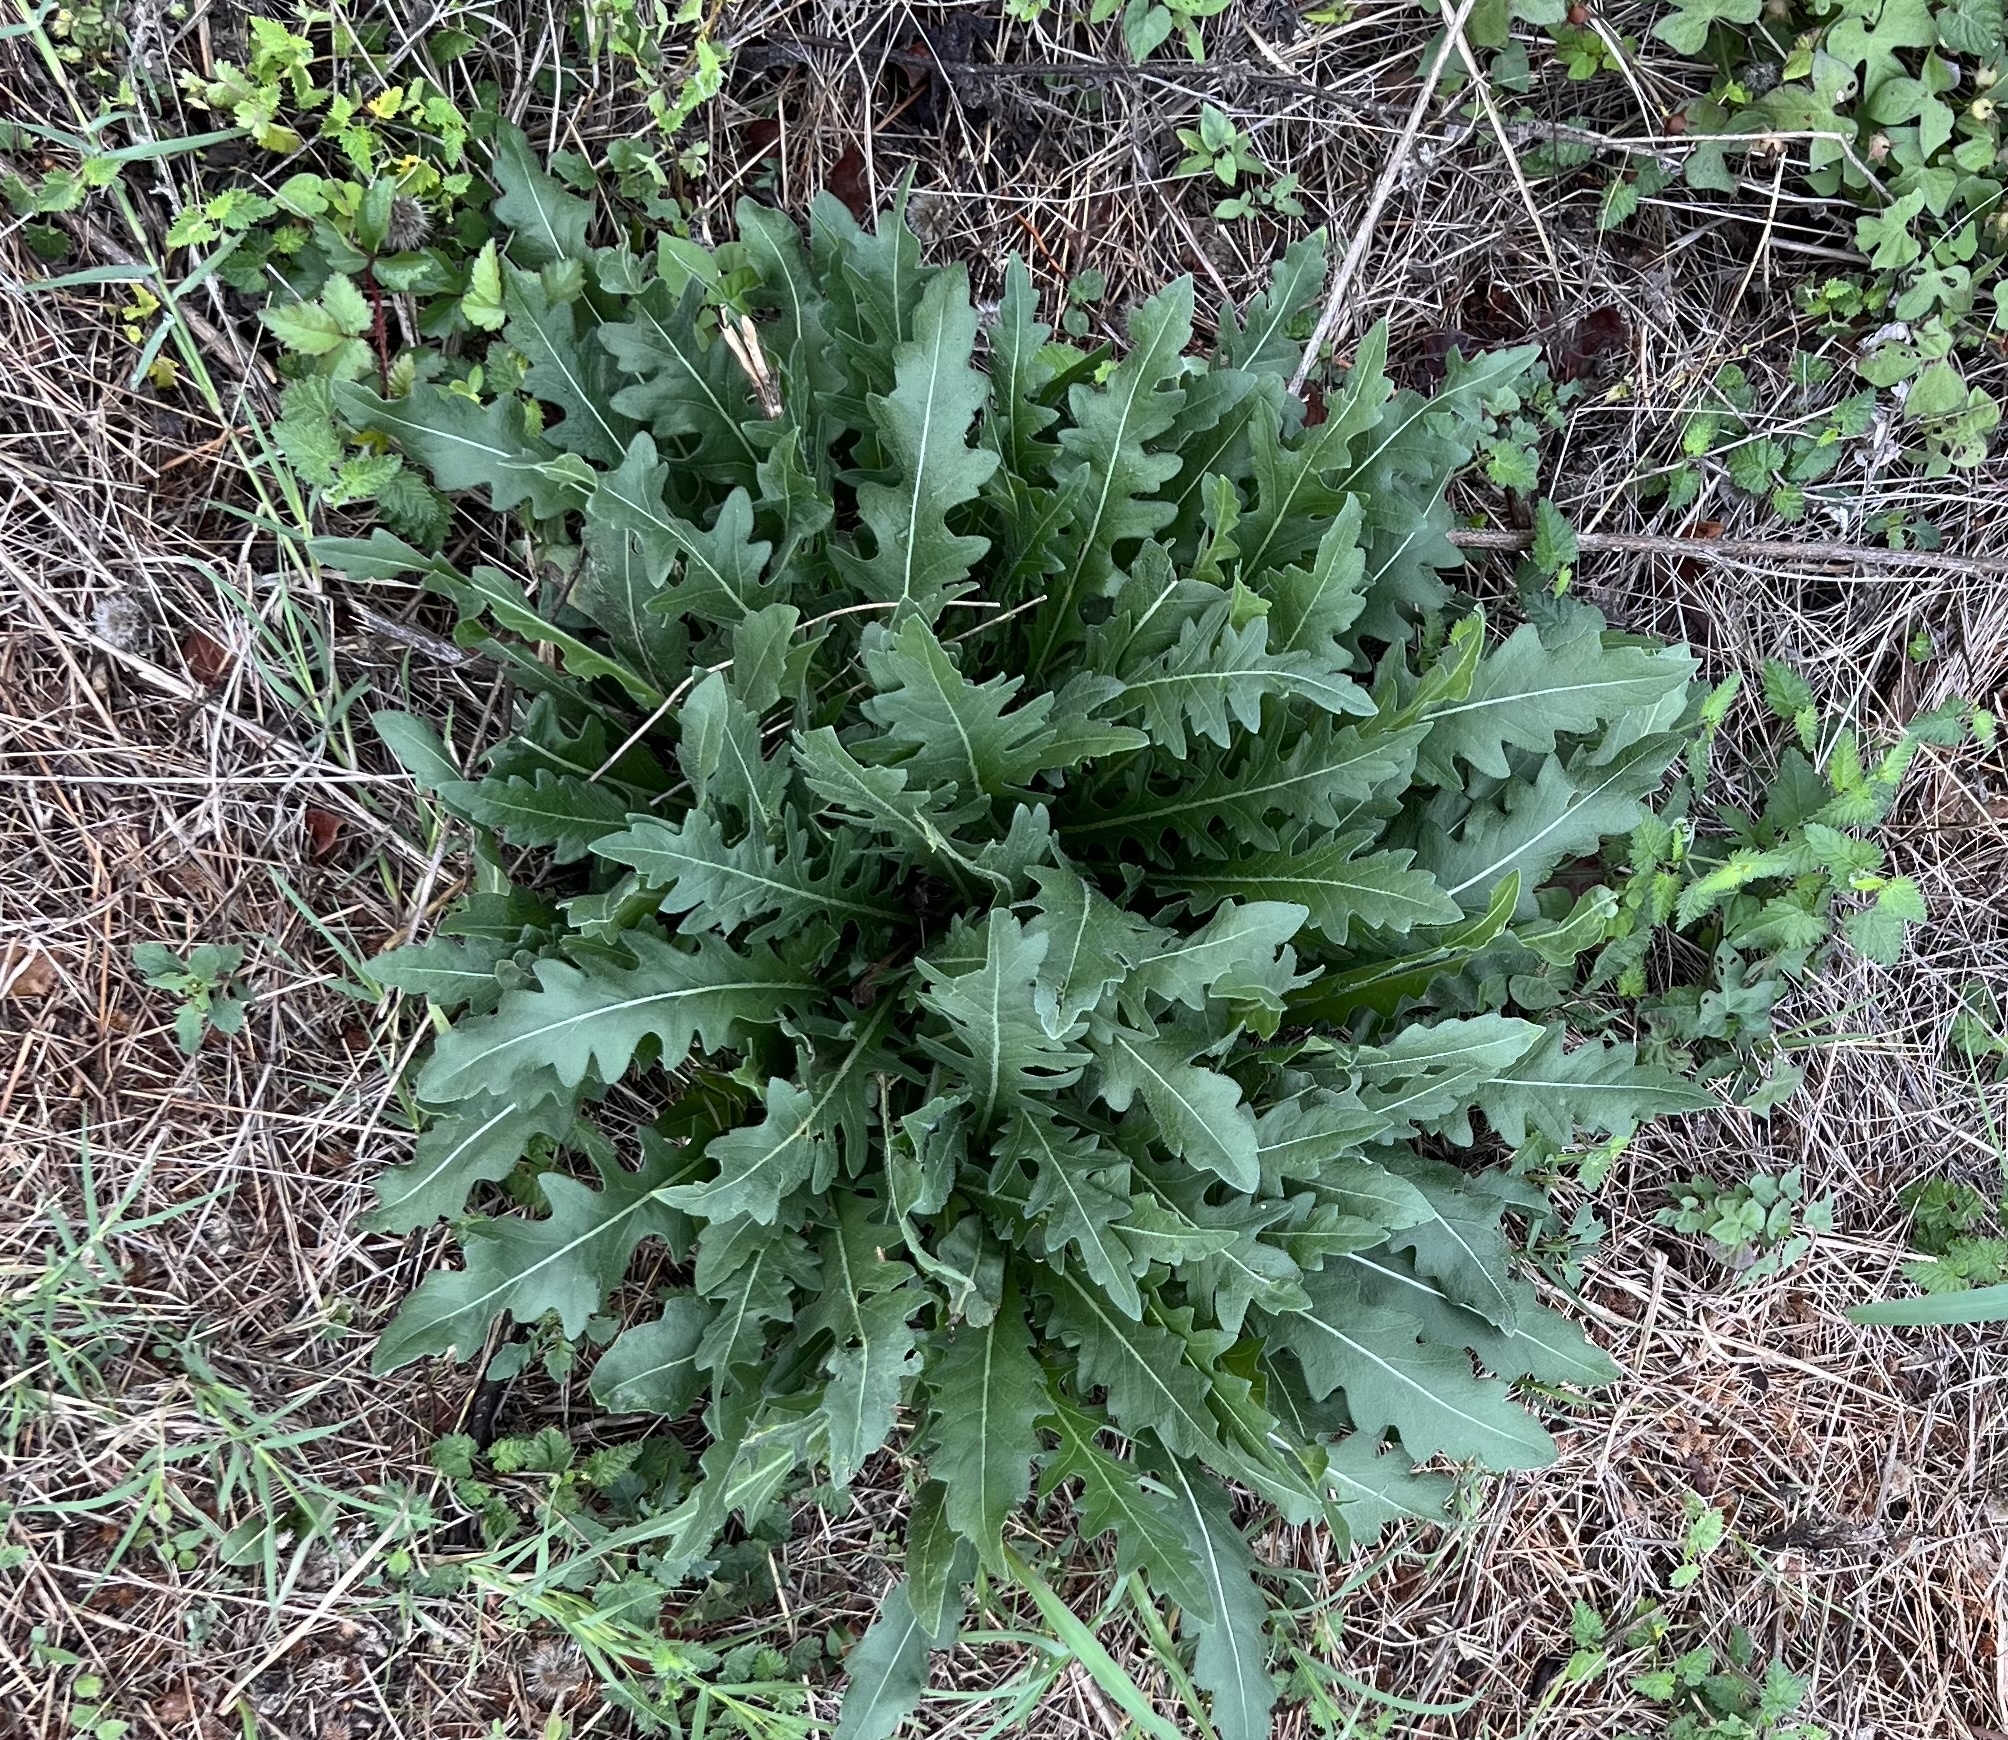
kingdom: Plantae
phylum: Tracheophyta
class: Magnoliopsida
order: Asterales
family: Asteraceae
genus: Engelmannia
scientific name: Engelmannia peristenia
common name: Engelmann's daisy
